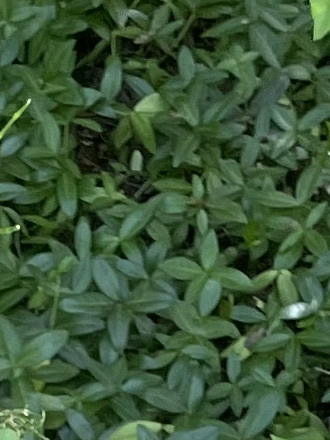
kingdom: Plantae
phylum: Tracheophyta
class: Magnoliopsida
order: Gentianales
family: Apocynaceae
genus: Vinca
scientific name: Vinca minor
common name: Lesser periwinkle
